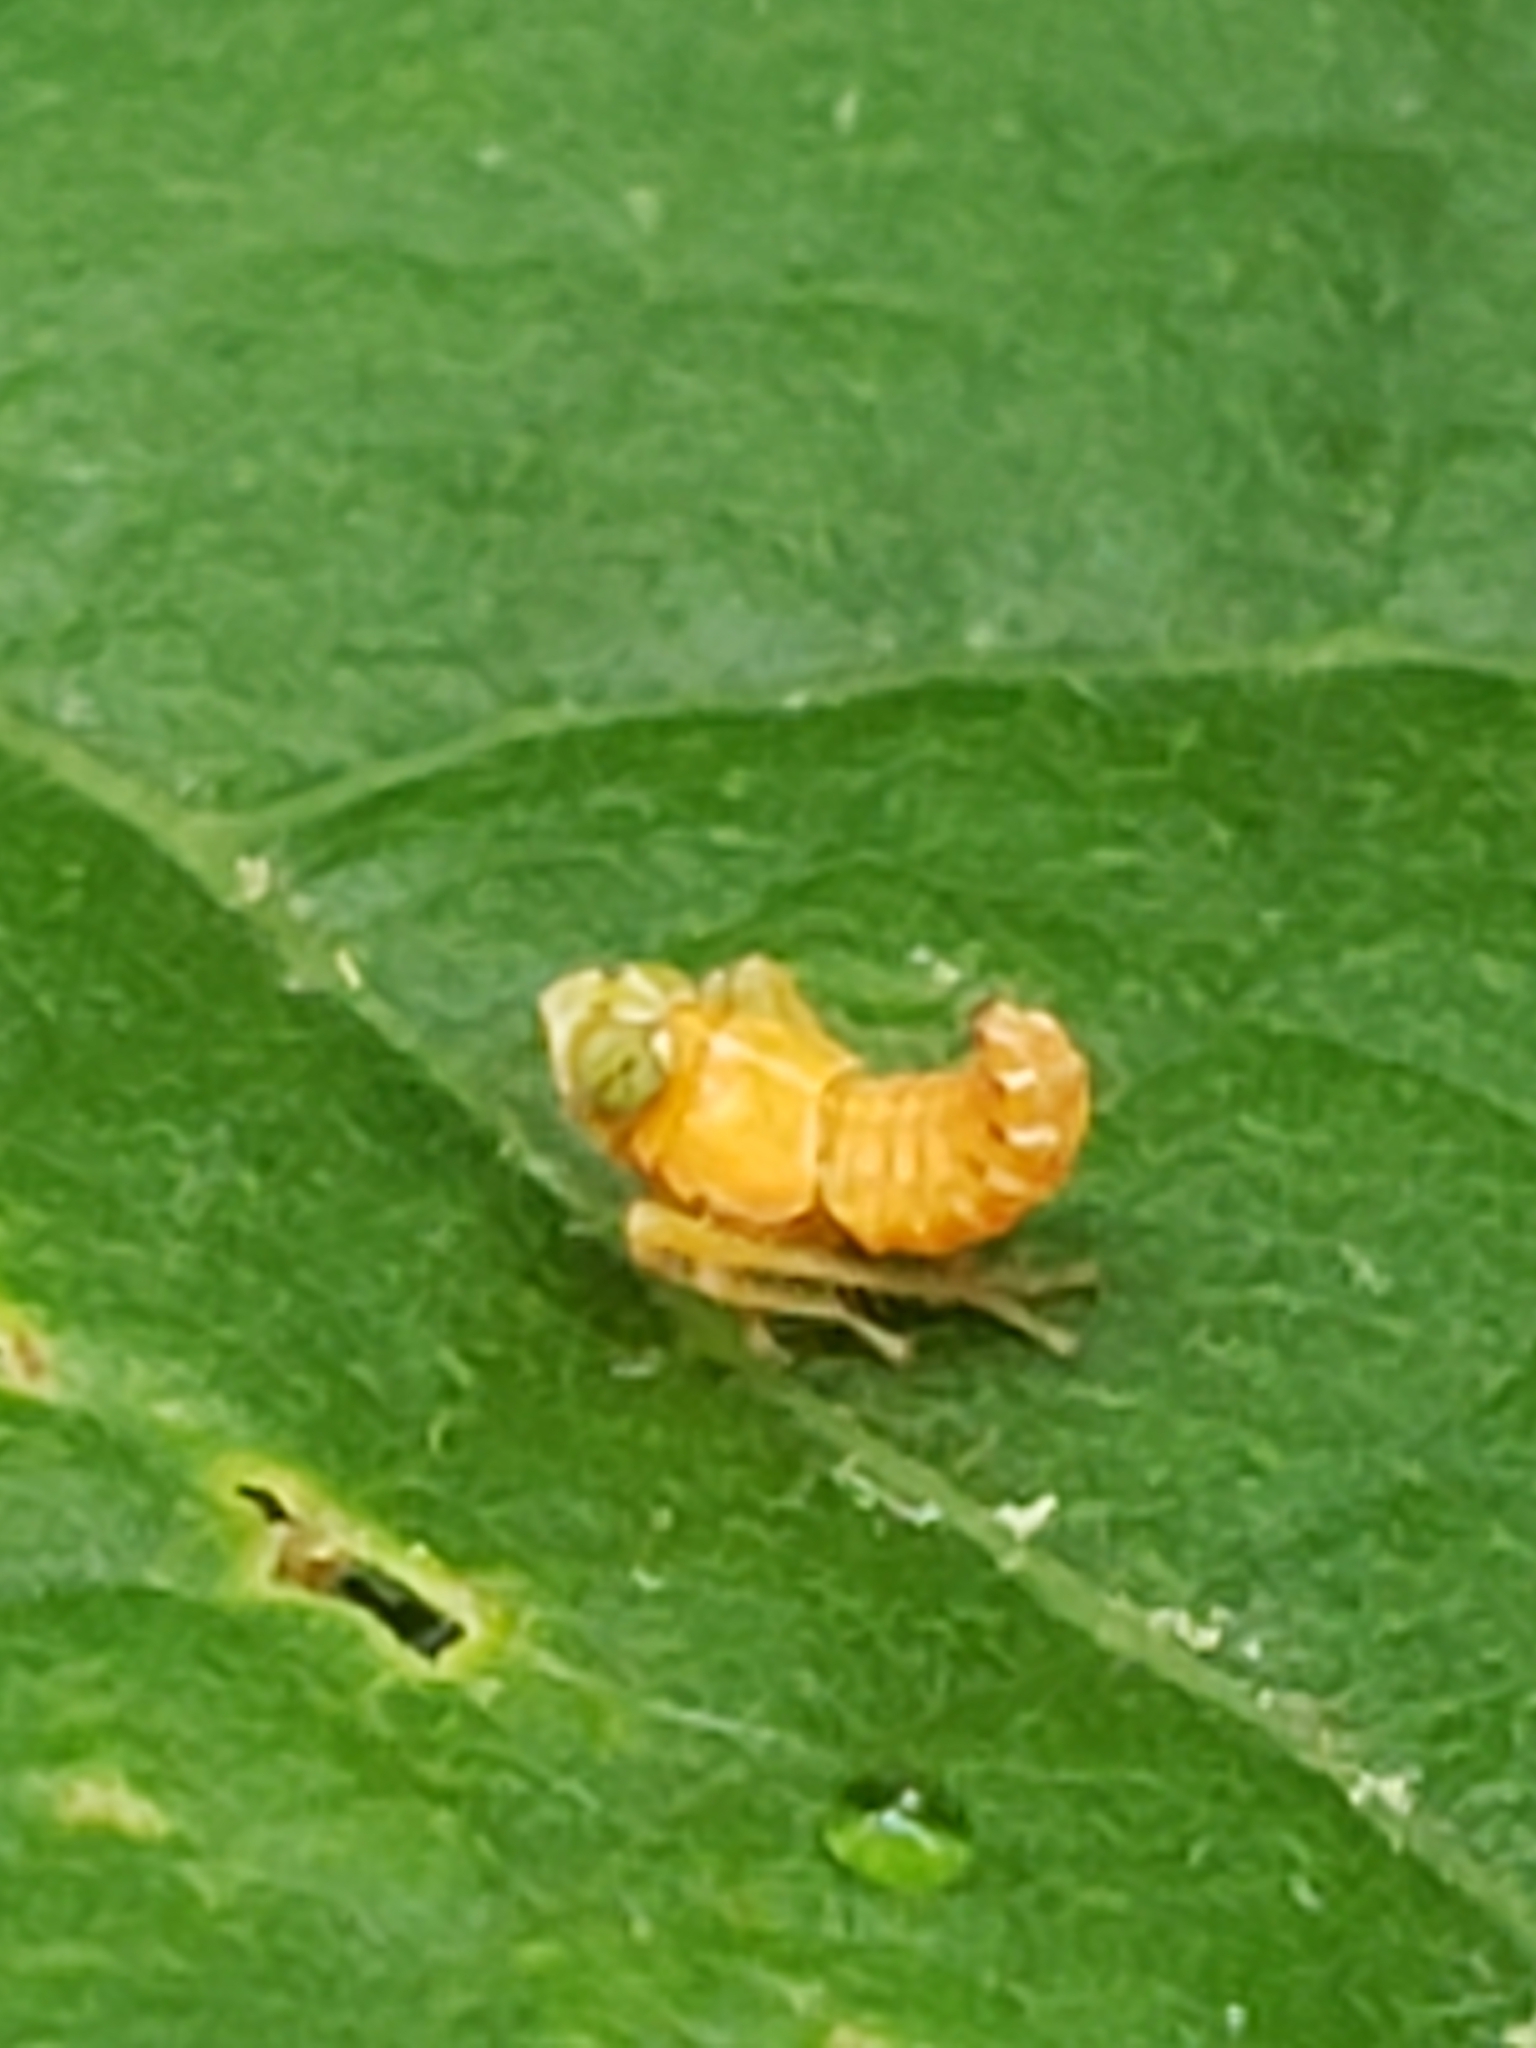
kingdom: Animalia
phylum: Arthropoda
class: Insecta
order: Hemiptera
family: Cicadellidae
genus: Jikradia
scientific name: Jikradia olitoria
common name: Coppery leafhopper
